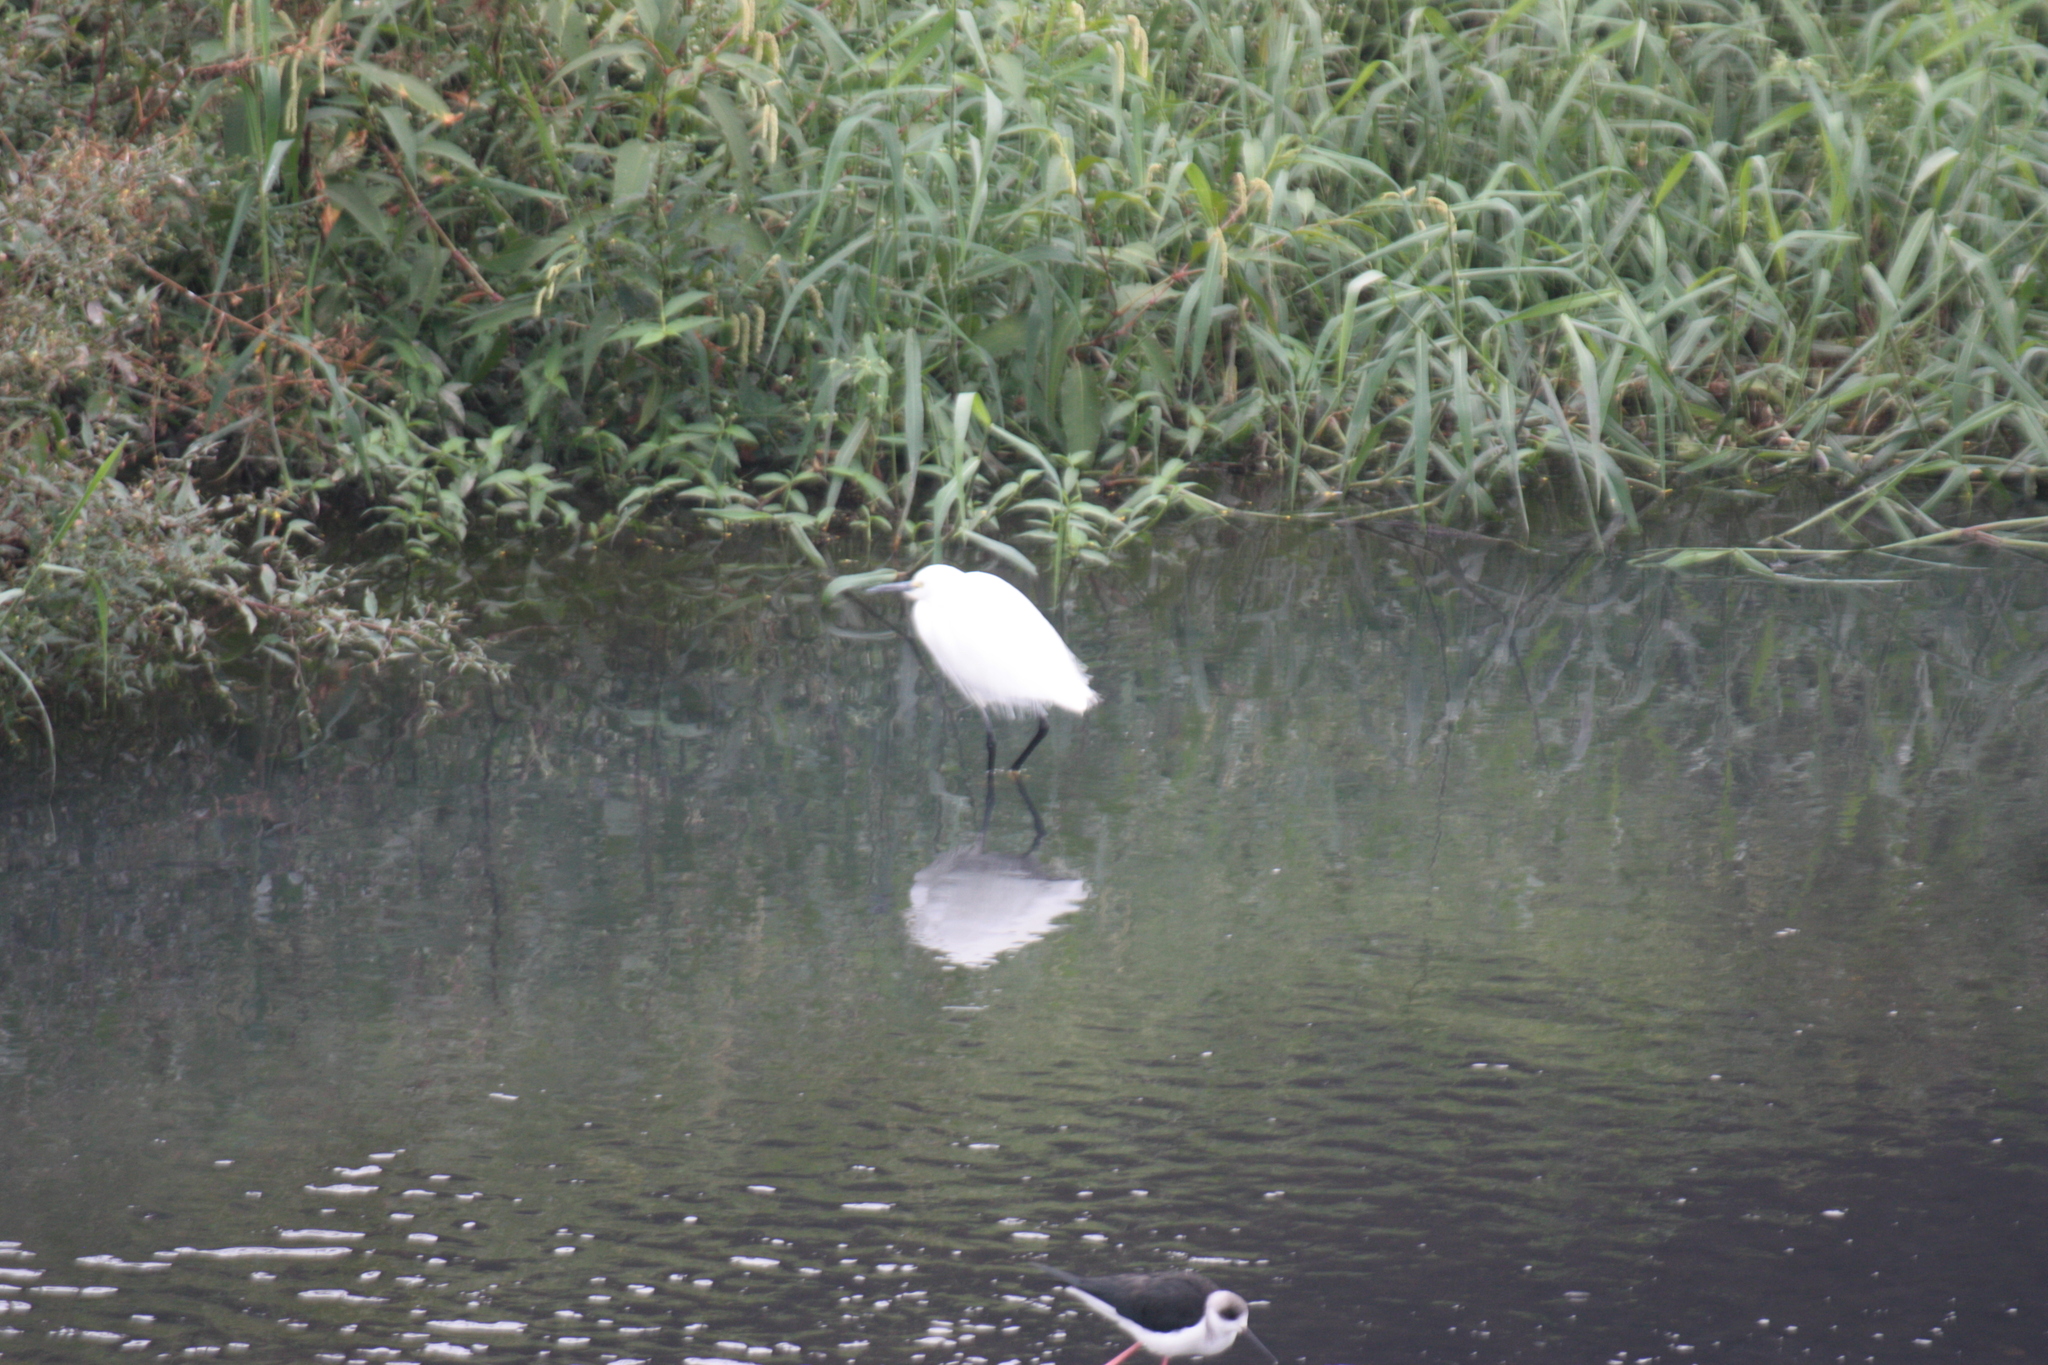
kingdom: Animalia
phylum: Chordata
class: Aves
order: Pelecaniformes
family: Ardeidae
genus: Egretta
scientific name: Egretta garzetta
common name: Little egret
